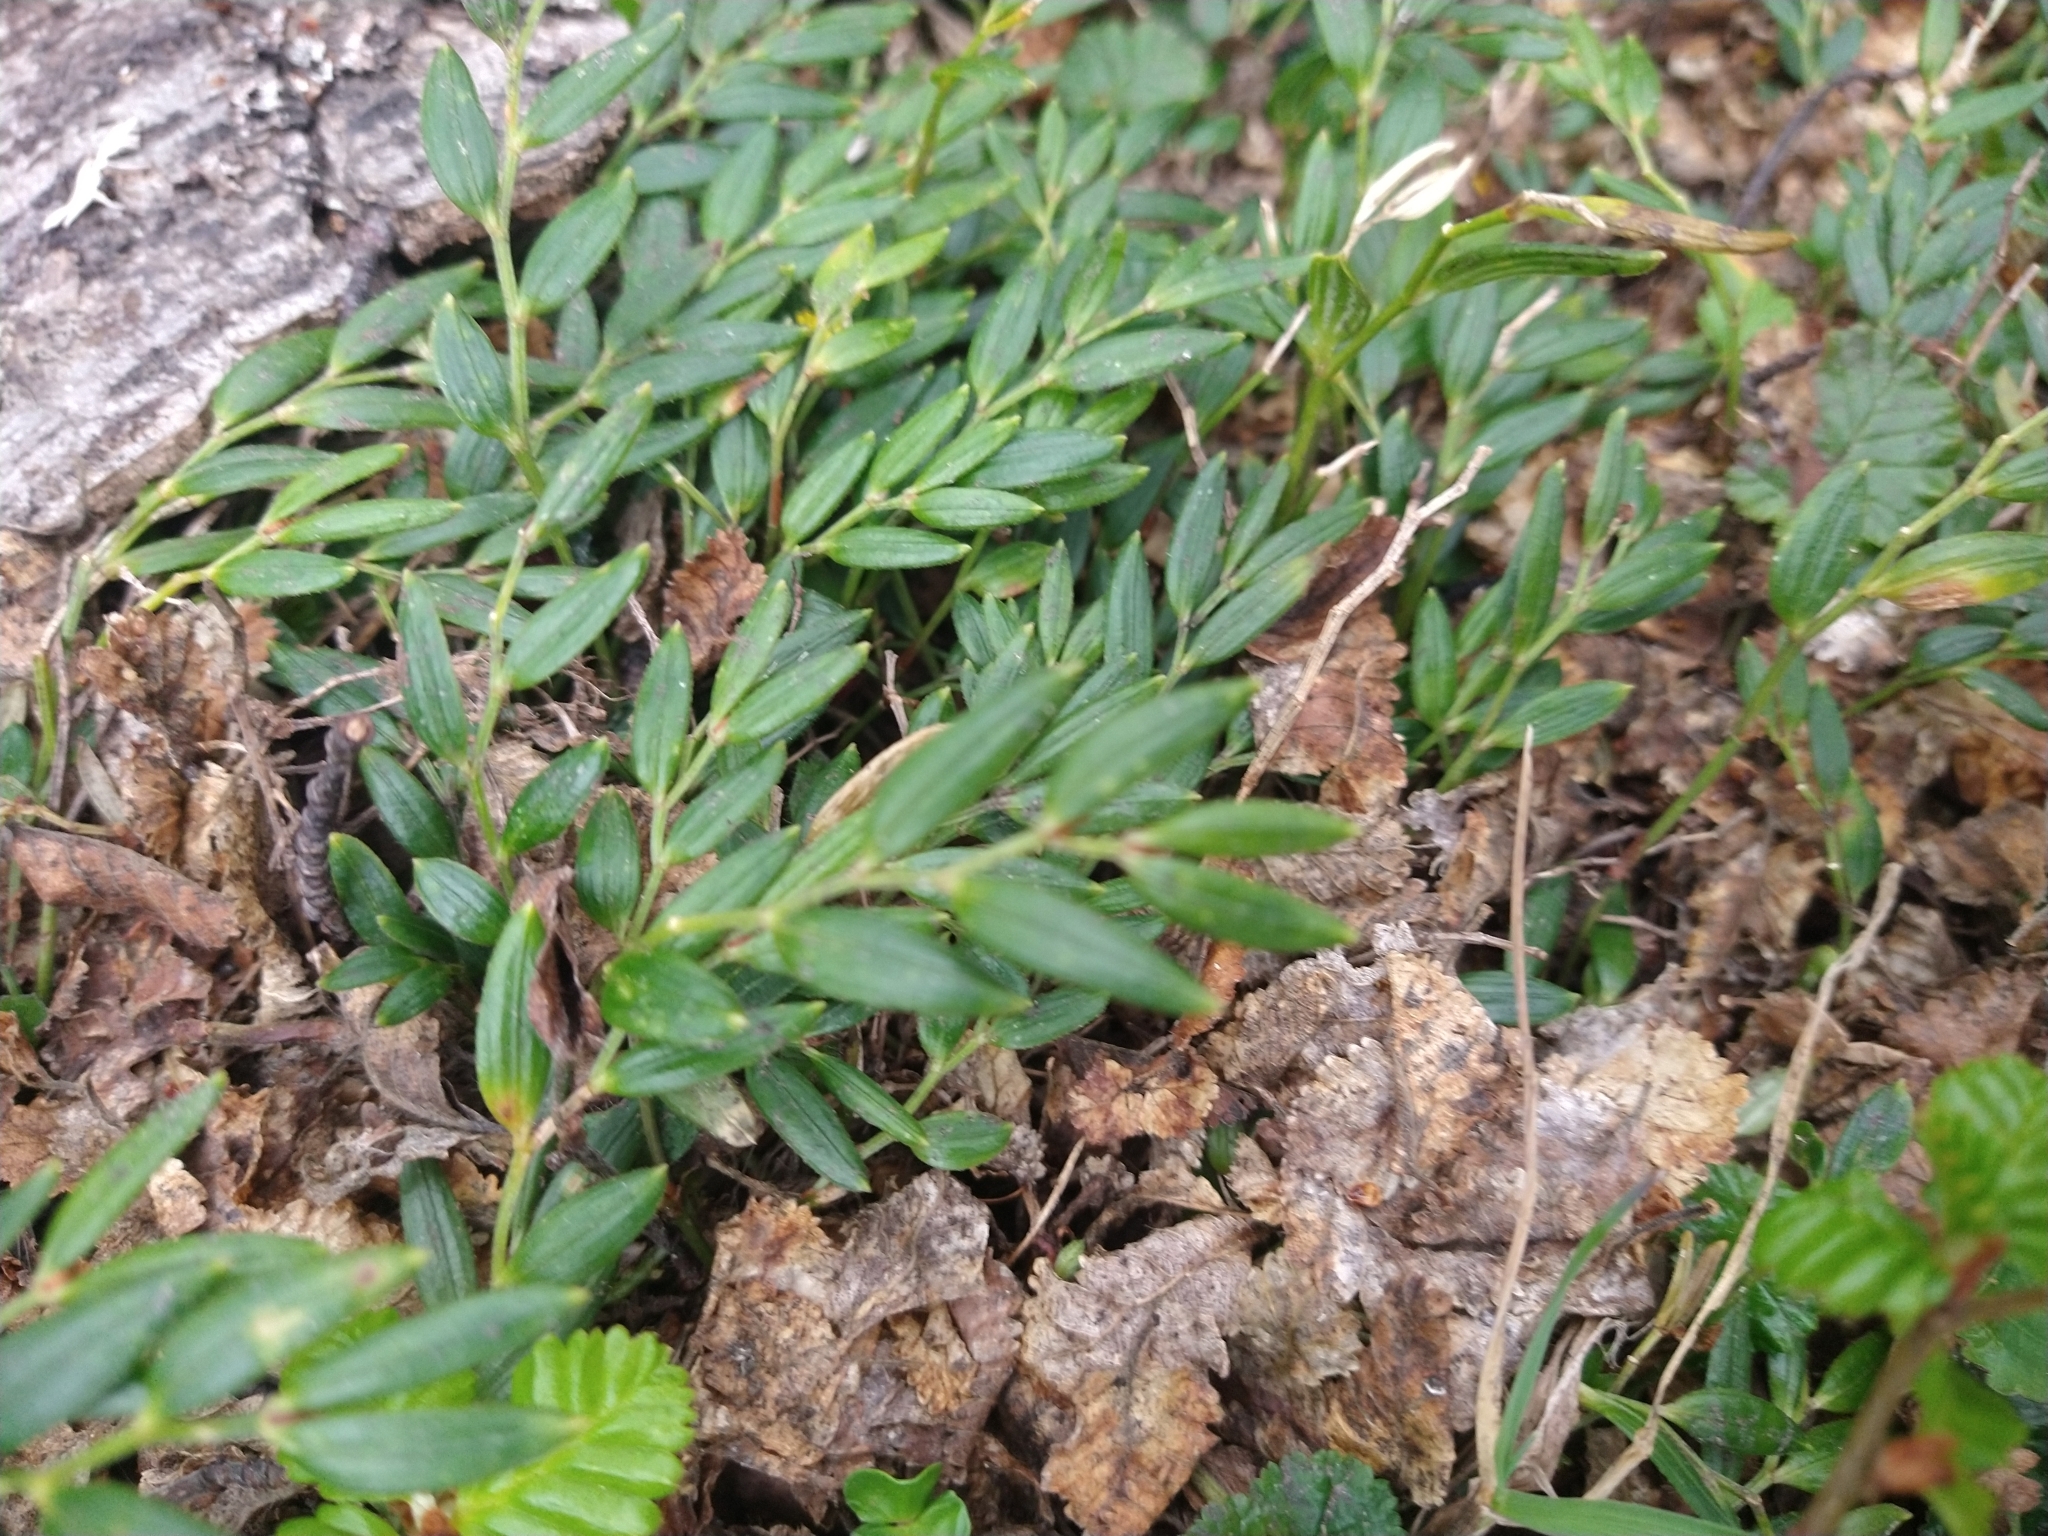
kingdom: Plantae
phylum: Tracheophyta
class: Liliopsida
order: Liliales
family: Alstroemeriaceae
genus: Luzuriaga
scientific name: Luzuriaga marginata
